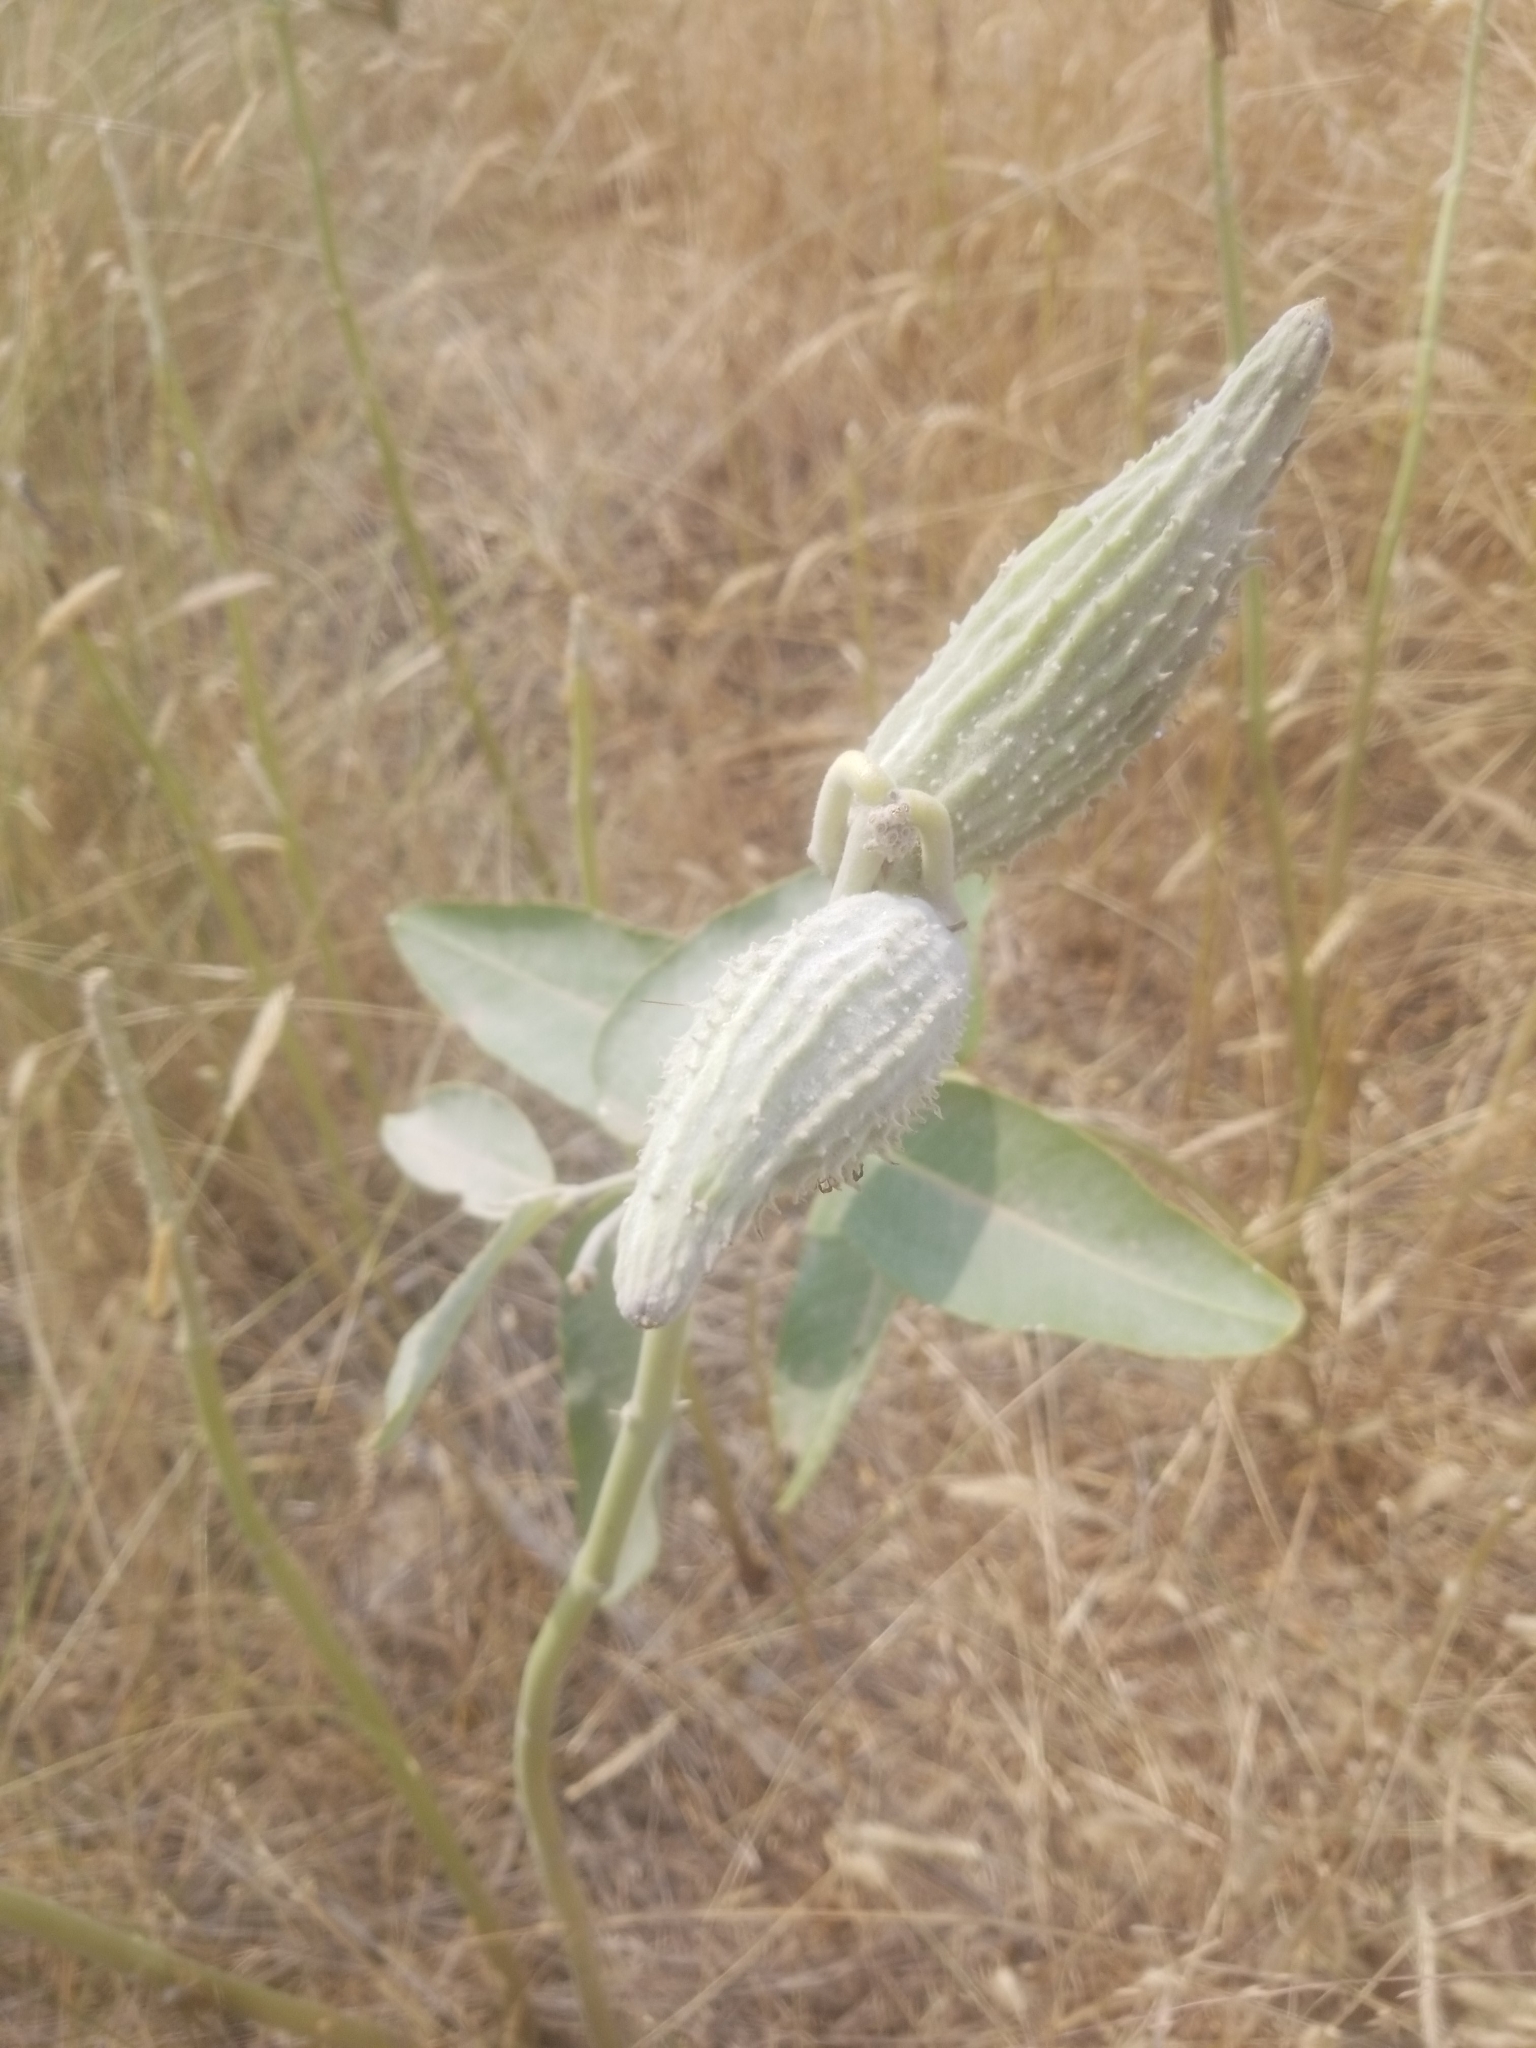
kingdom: Plantae
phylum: Tracheophyta
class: Magnoliopsida
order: Gentianales
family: Apocynaceae
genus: Asclepias
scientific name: Asclepias speciosa
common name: Showy milkweed
